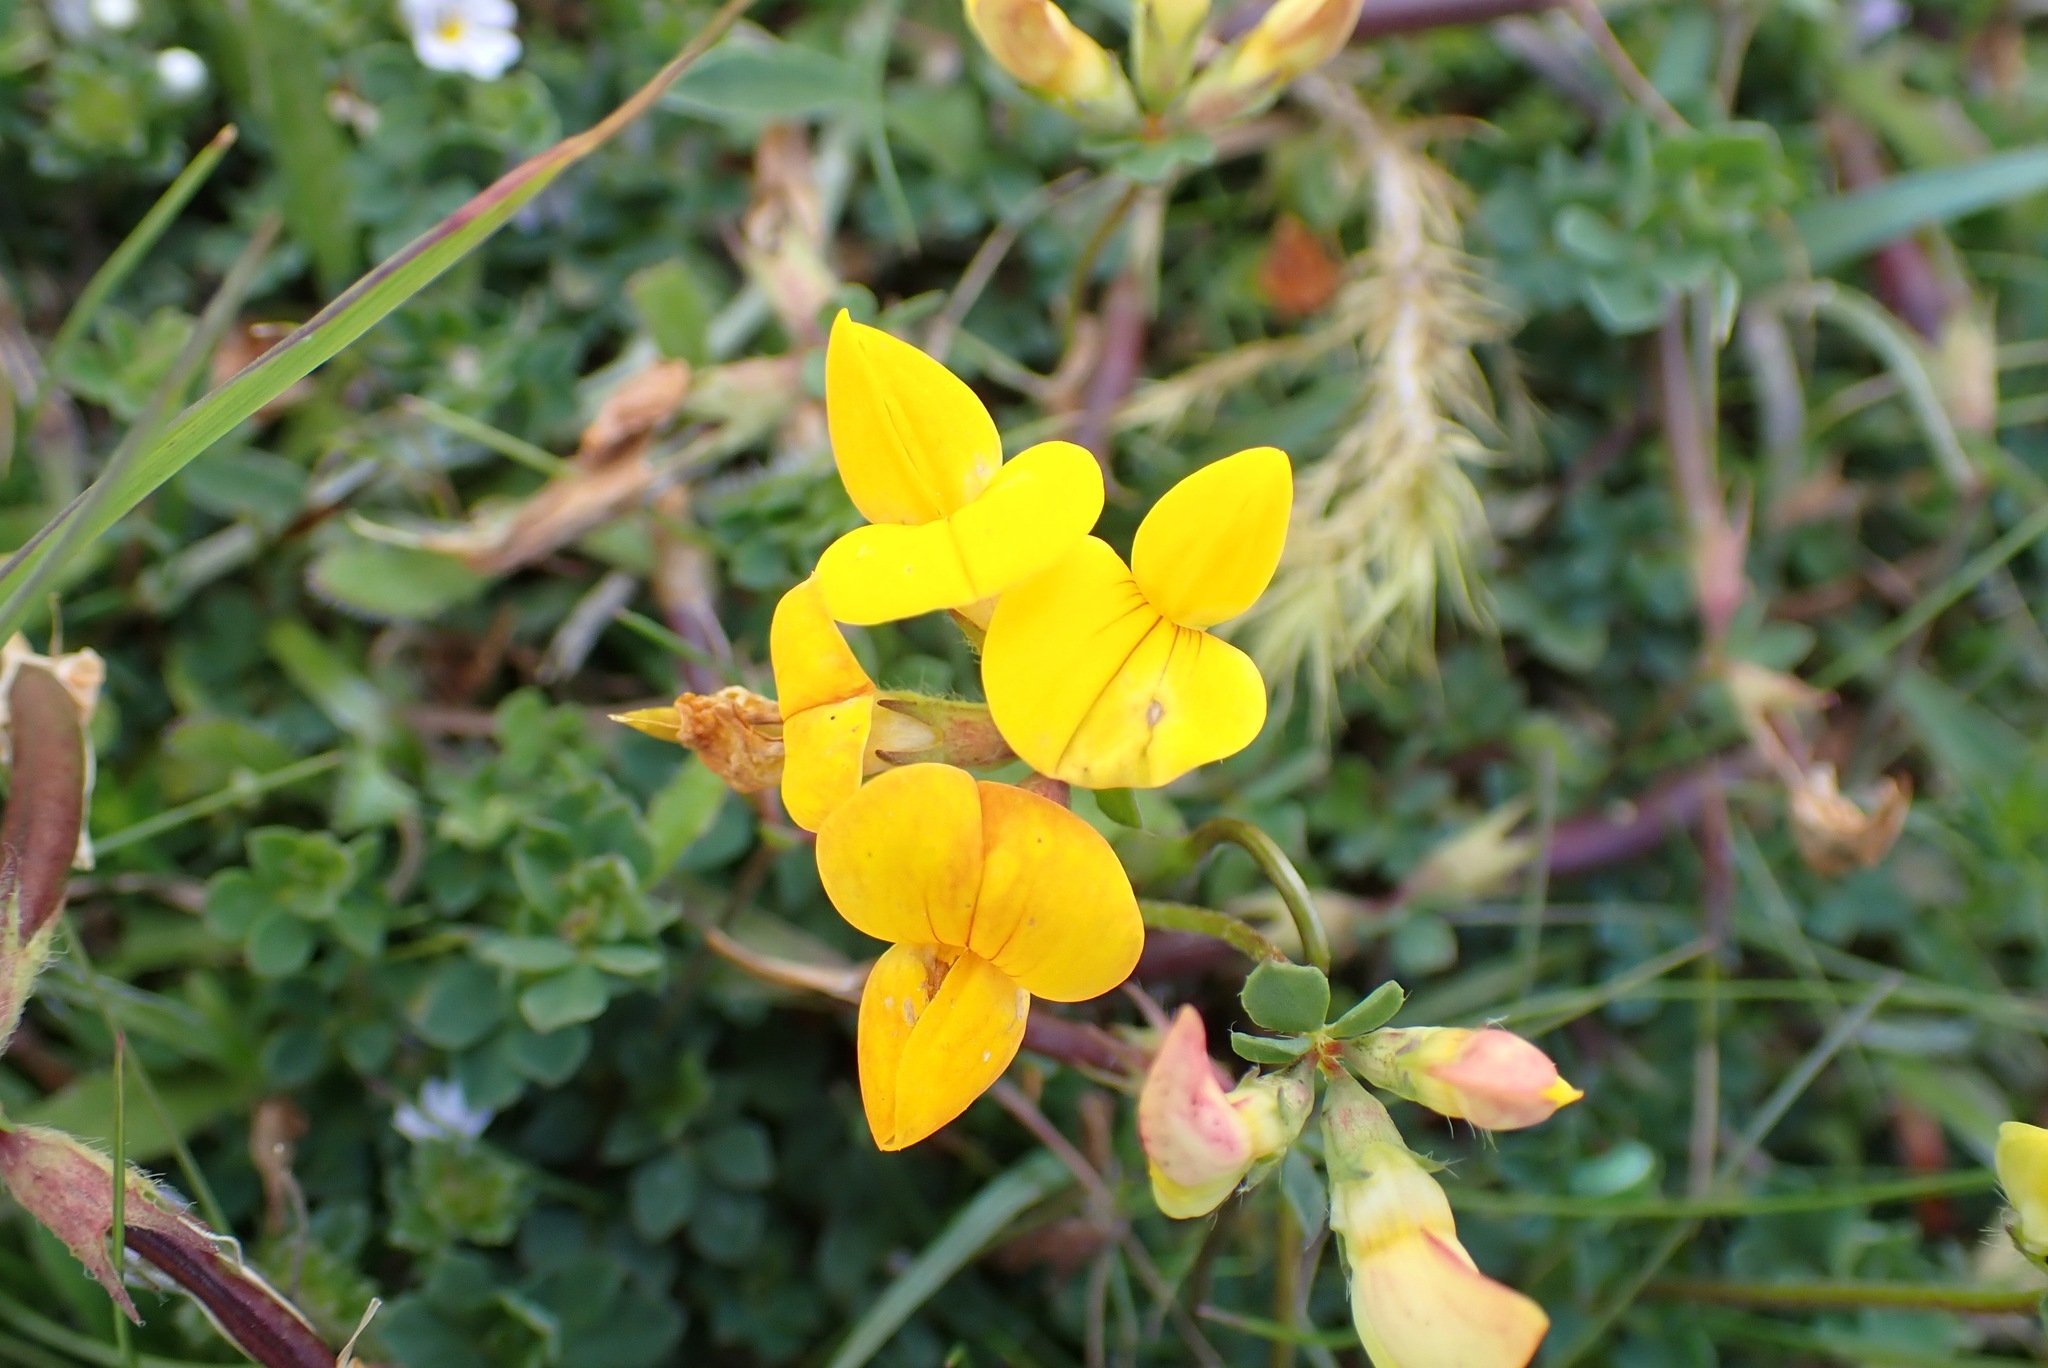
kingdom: Plantae
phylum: Tracheophyta
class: Magnoliopsida
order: Fabales
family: Fabaceae
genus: Lotus
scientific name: Lotus corniculatus
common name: Common bird's-foot-trefoil
